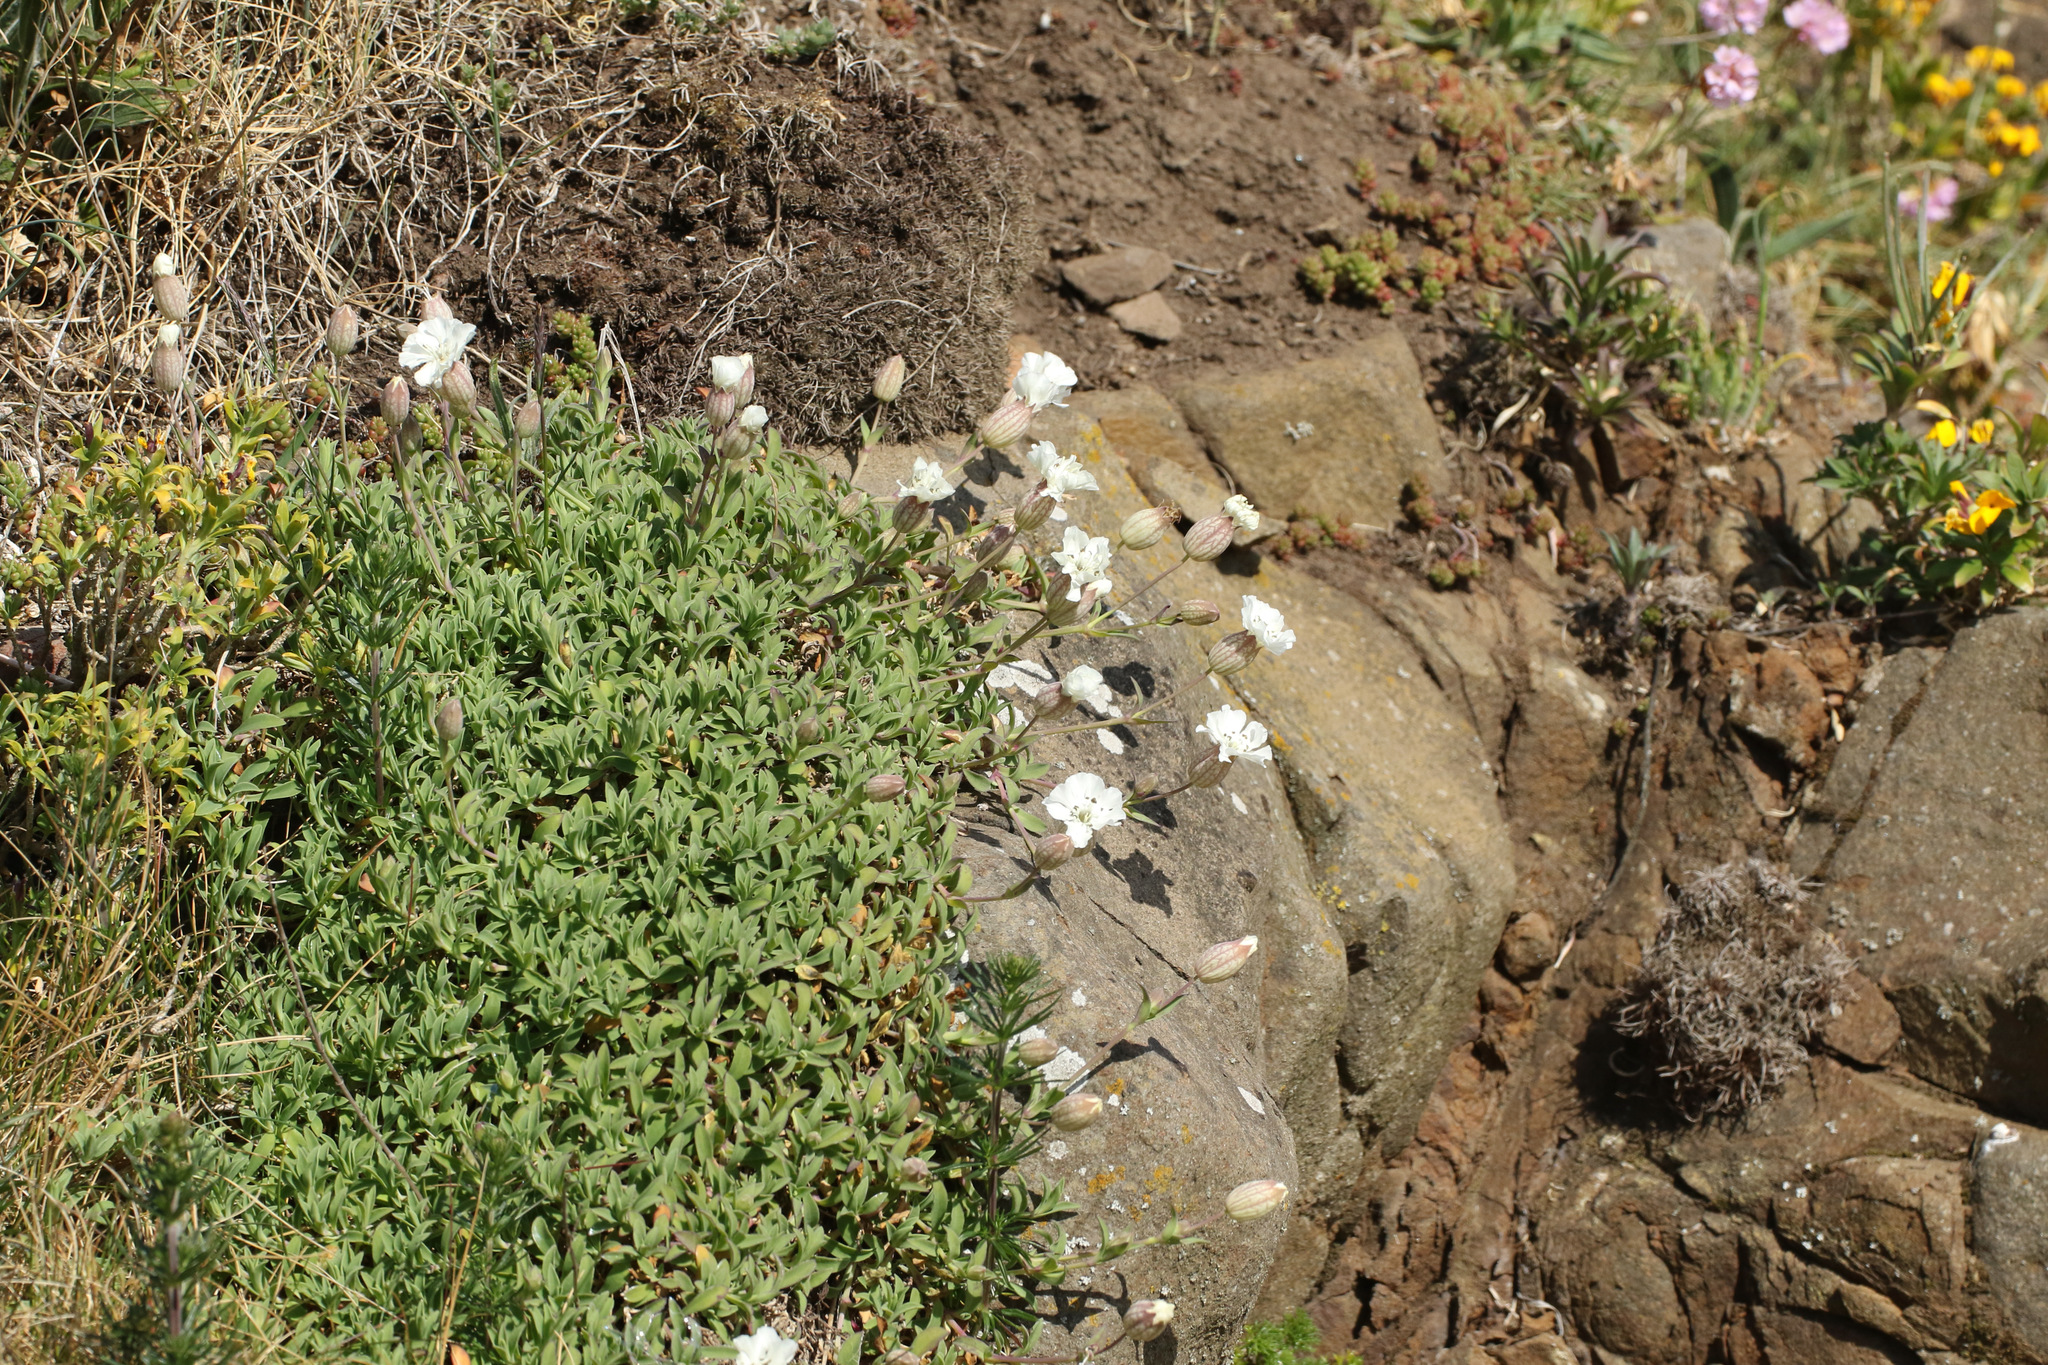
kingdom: Plantae
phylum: Tracheophyta
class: Magnoliopsida
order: Caryophyllales
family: Caryophyllaceae
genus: Silene
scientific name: Silene uniflora
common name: Sea campion
